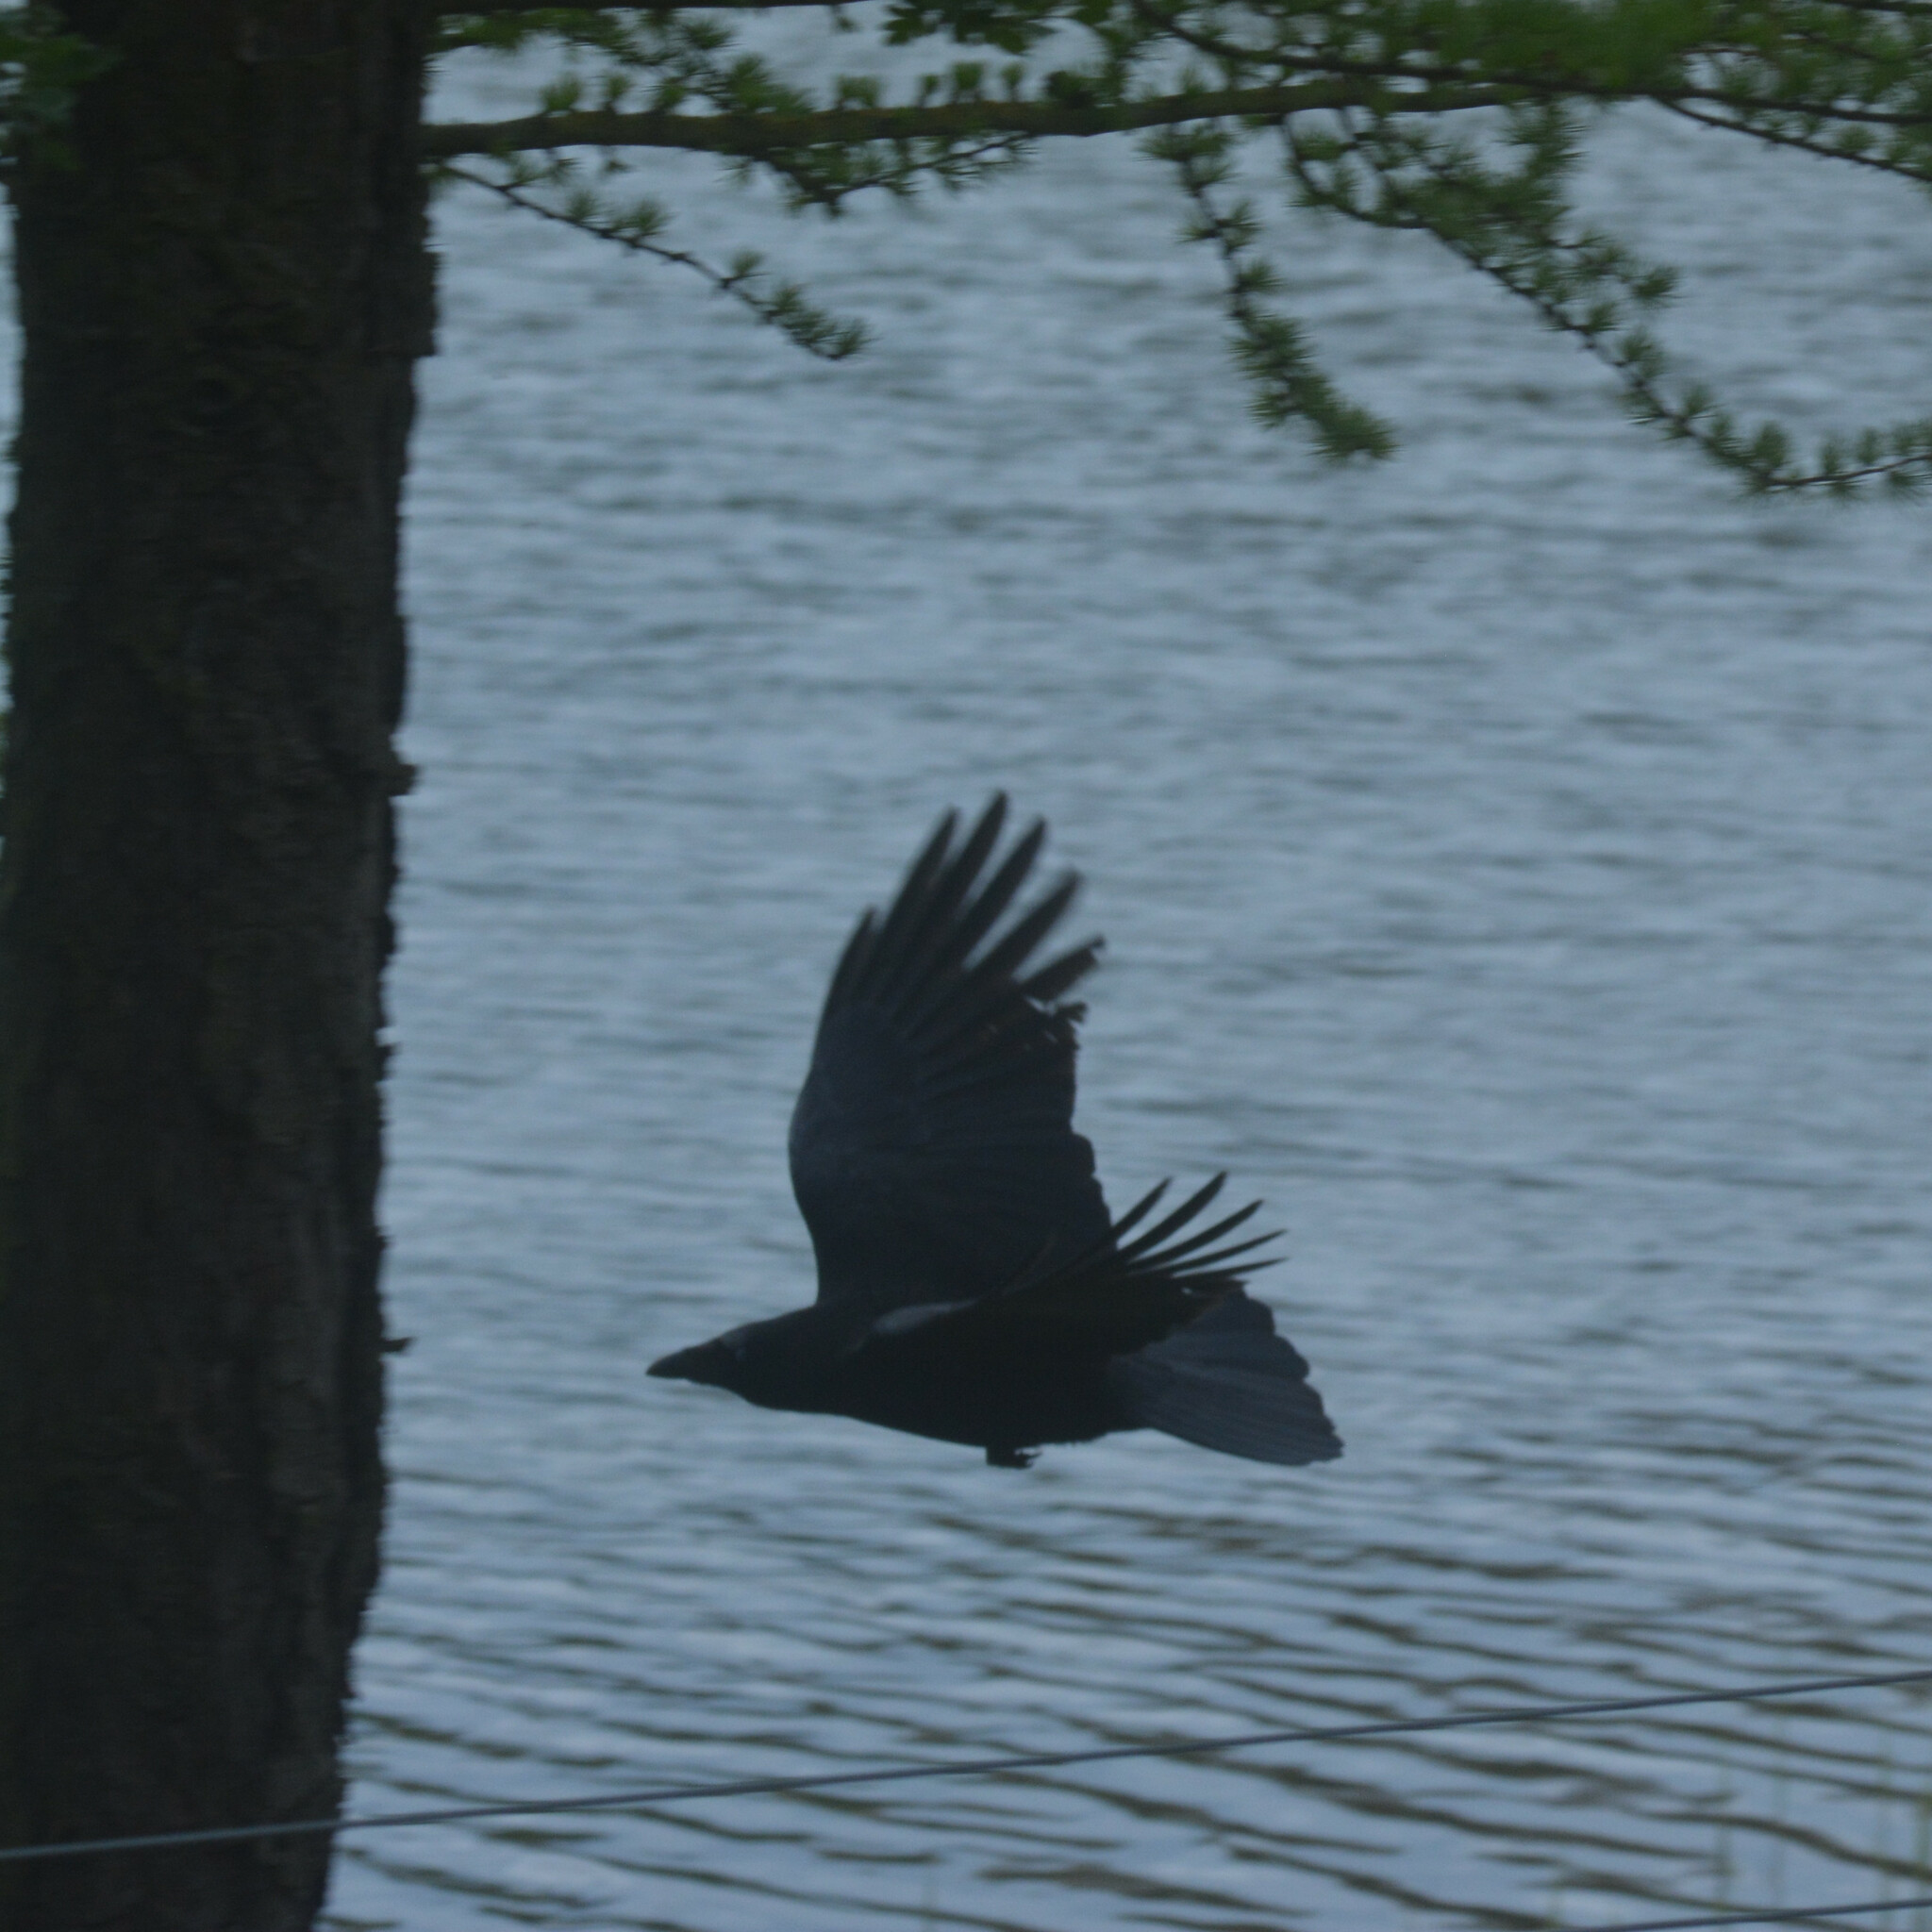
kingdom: Animalia
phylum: Chordata
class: Aves
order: Passeriformes
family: Corvidae
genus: Corvus
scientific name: Corvus corone
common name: Carrion crow
